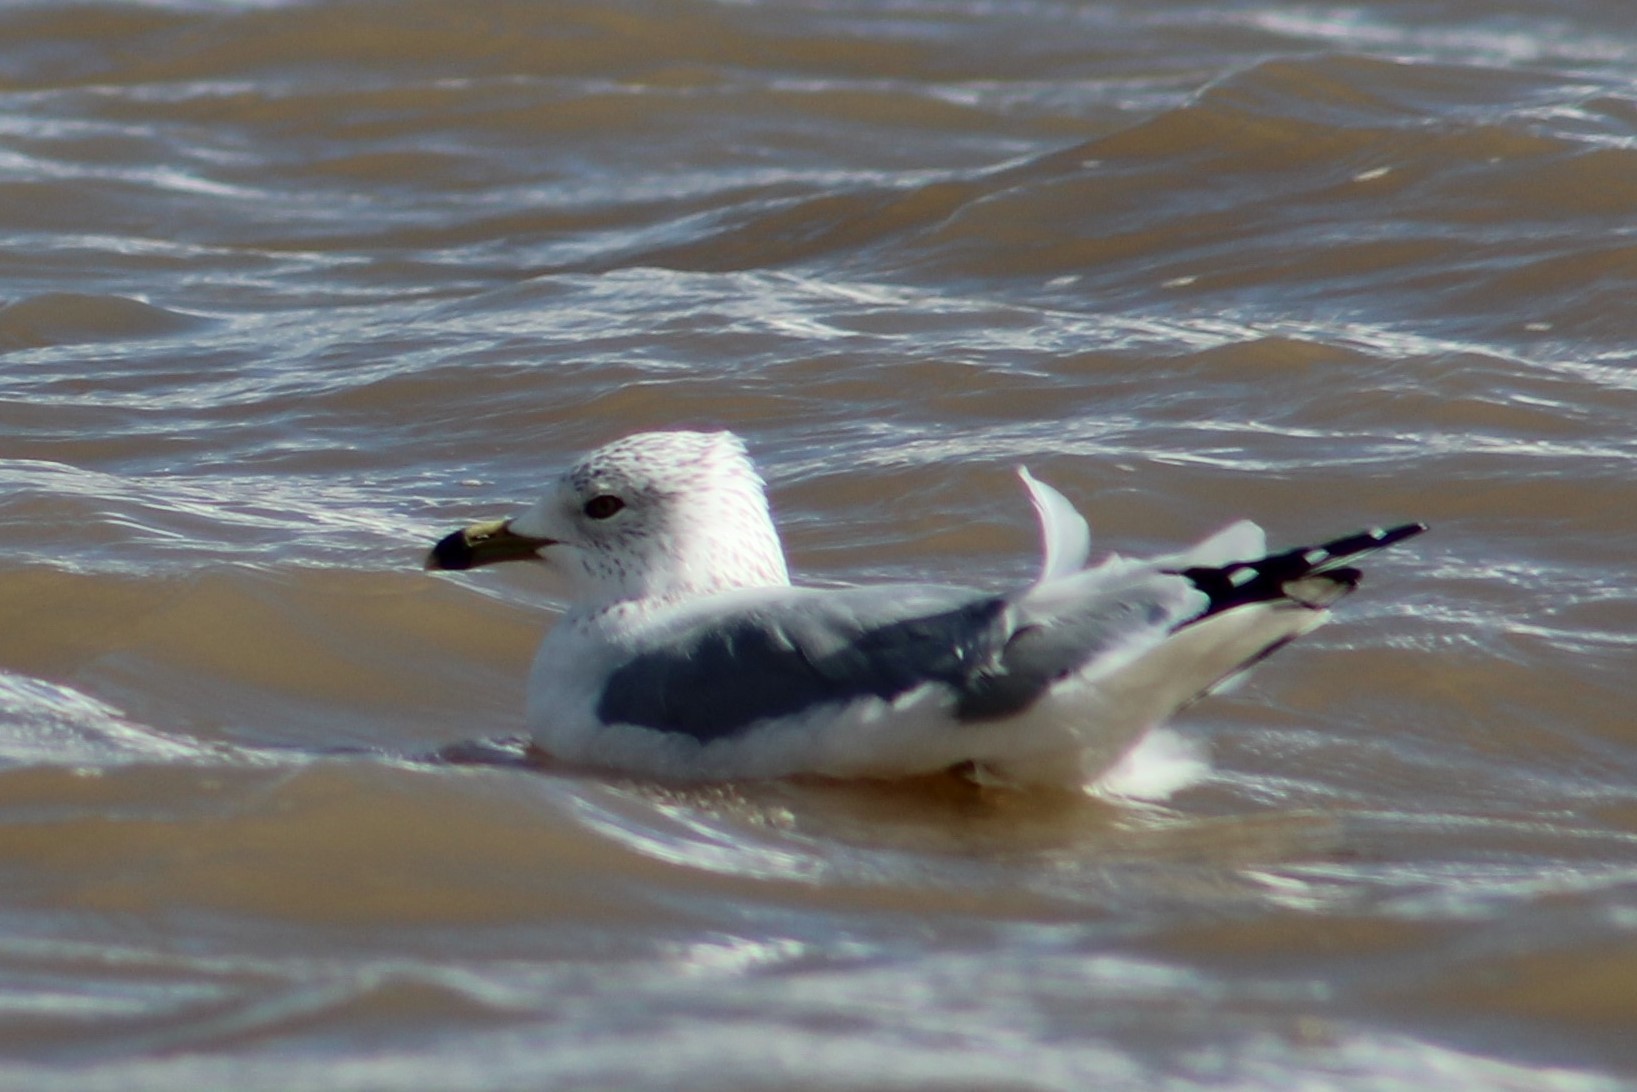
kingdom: Animalia
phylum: Chordata
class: Aves
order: Charadriiformes
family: Laridae
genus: Larus
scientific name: Larus delawarensis
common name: Ring-billed gull
